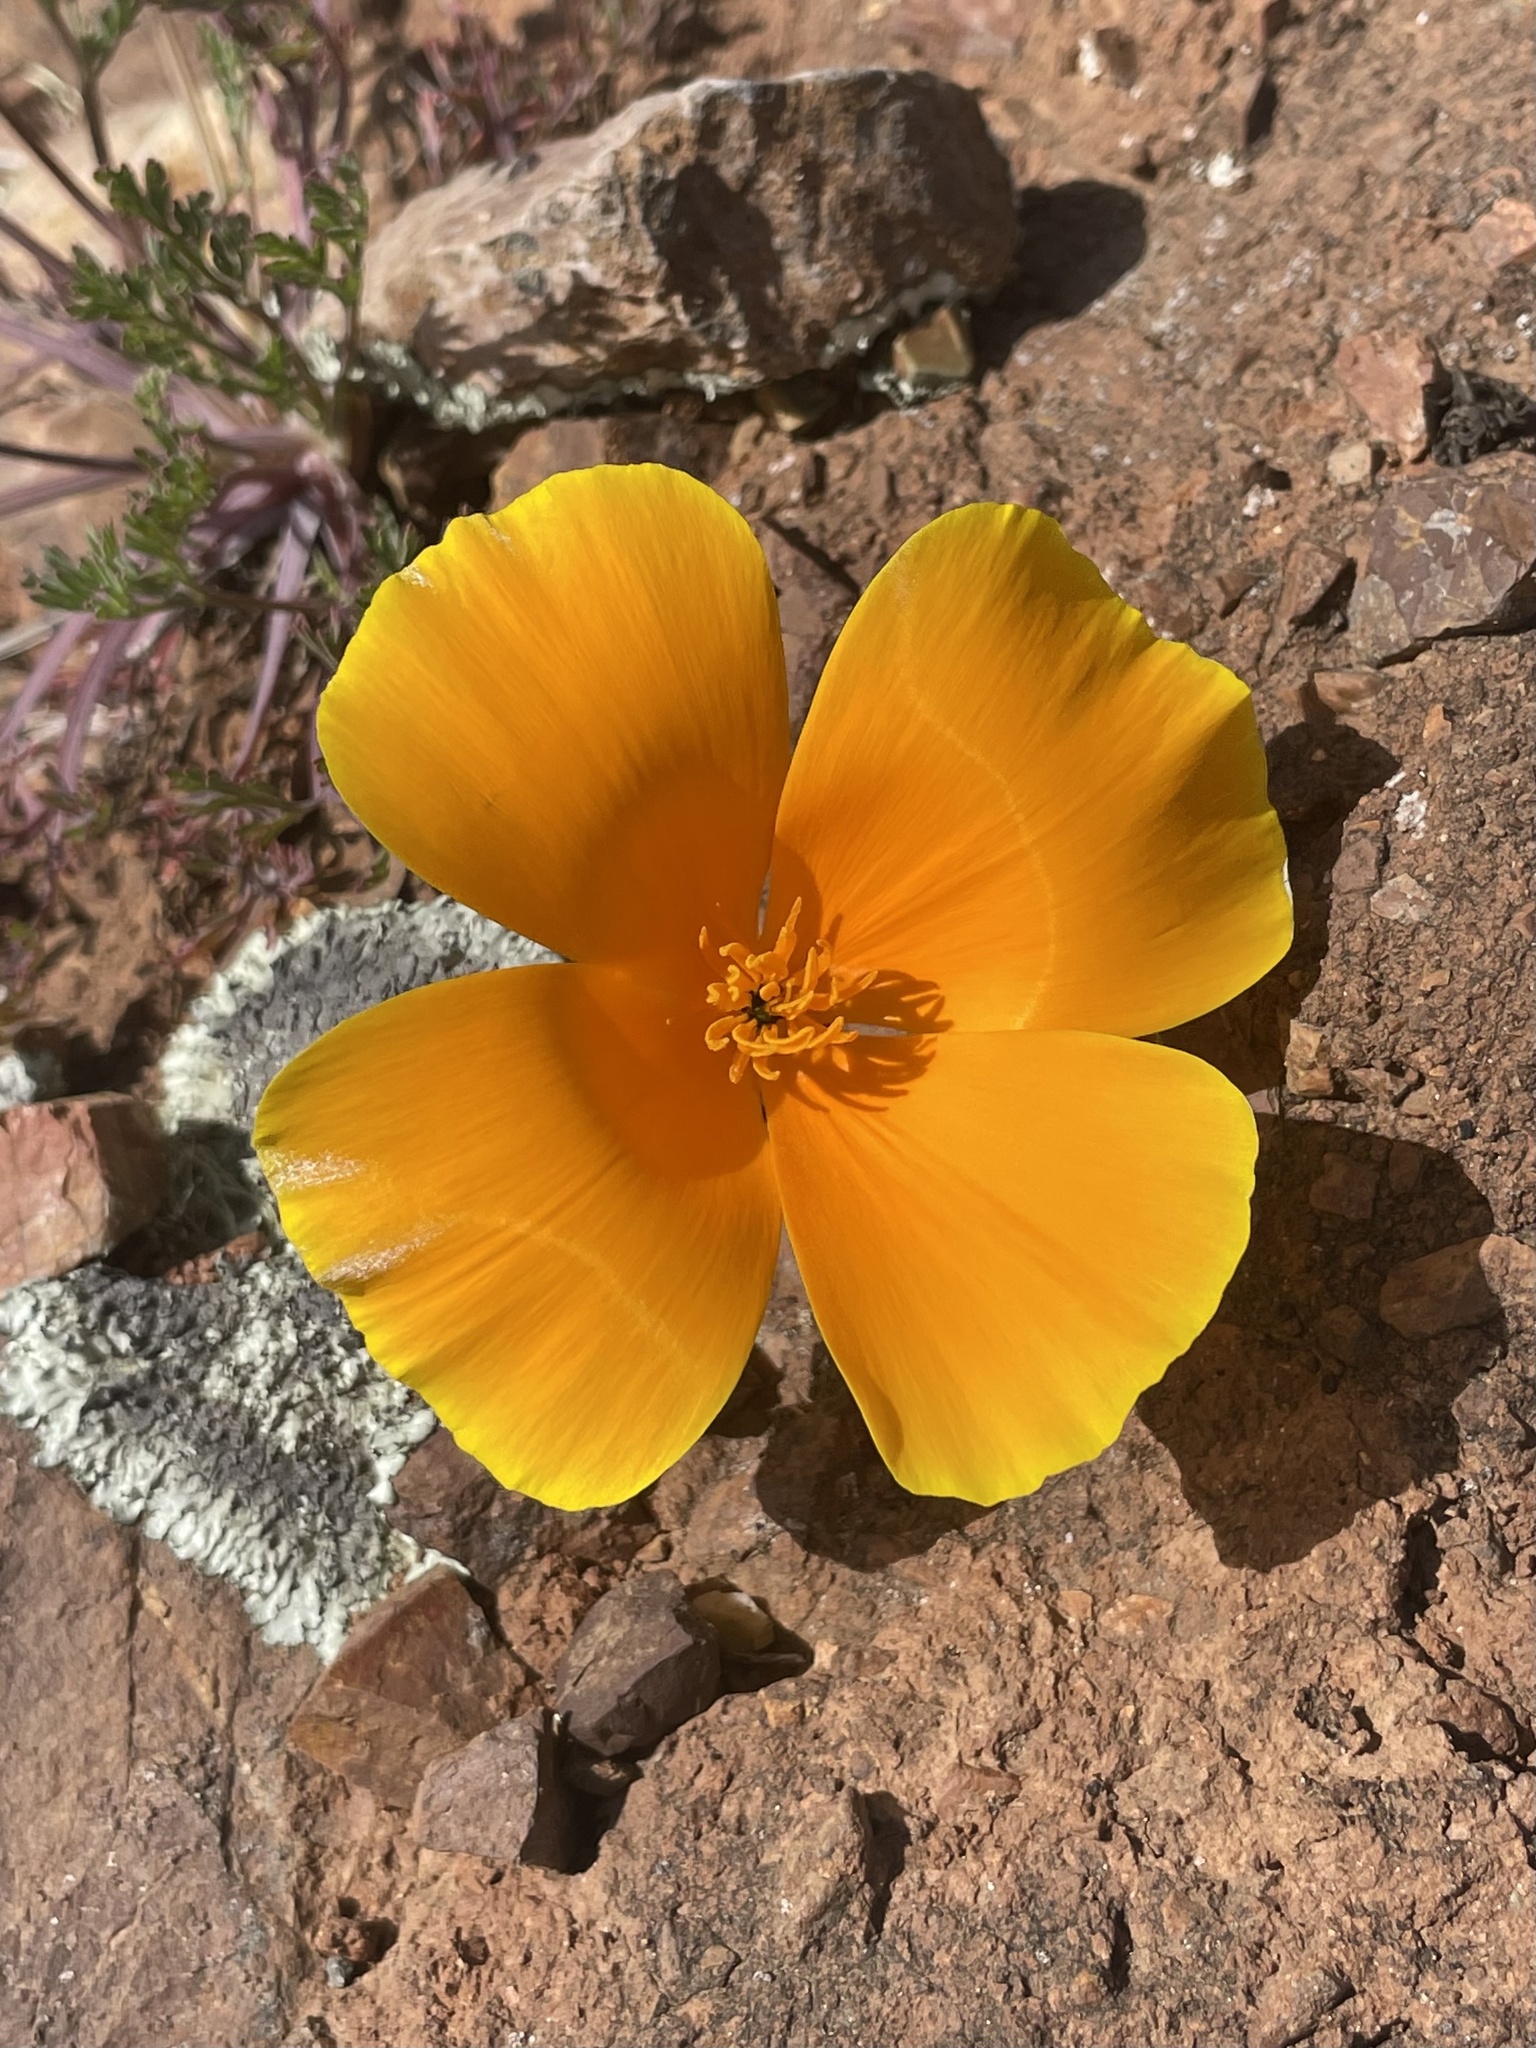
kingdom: Plantae
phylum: Tracheophyta
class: Magnoliopsida
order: Ranunculales
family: Papaveraceae
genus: Eschscholzia
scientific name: Eschscholzia californica
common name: California poppy
